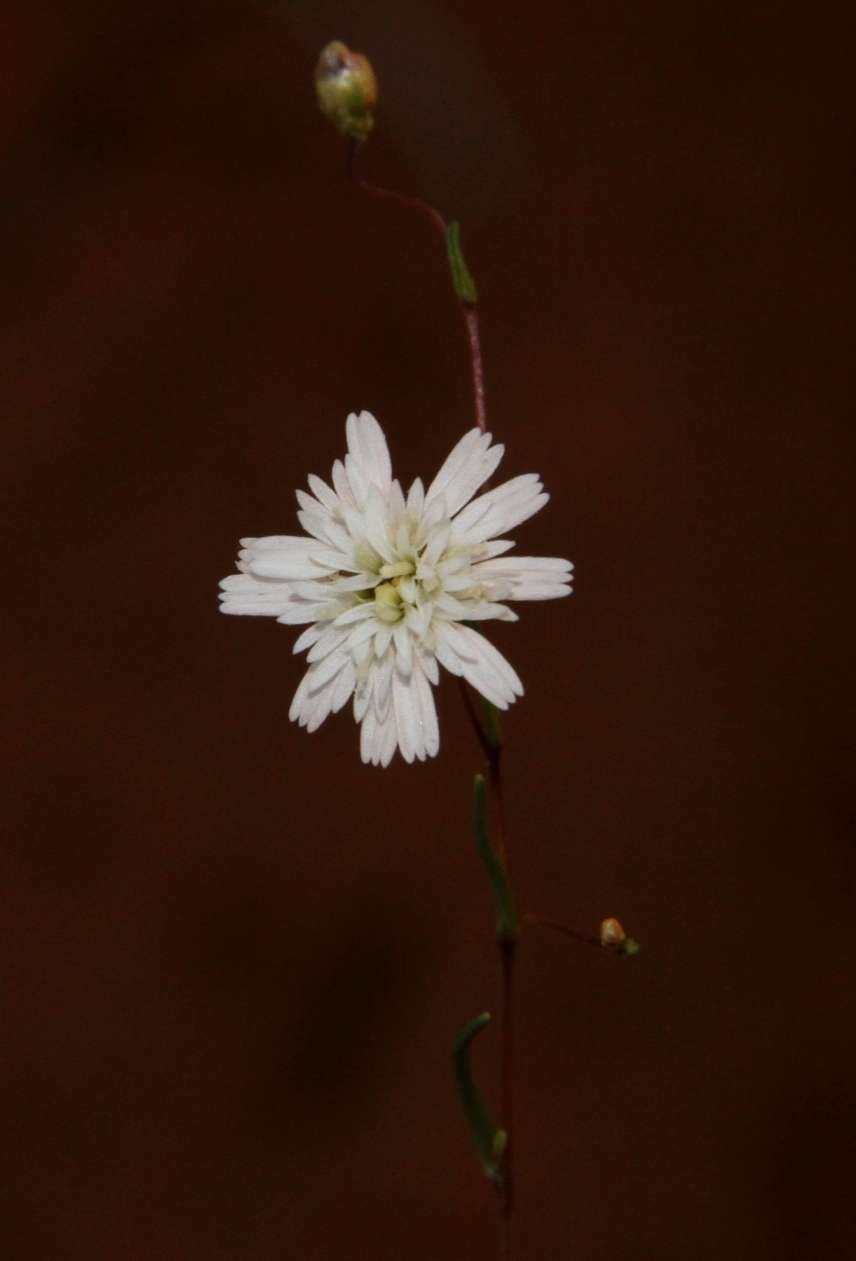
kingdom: Plantae
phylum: Tracheophyta
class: Magnoliopsida
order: Asterales
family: Asteraceae
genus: Siemssenia
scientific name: Siemssenia capillaris
